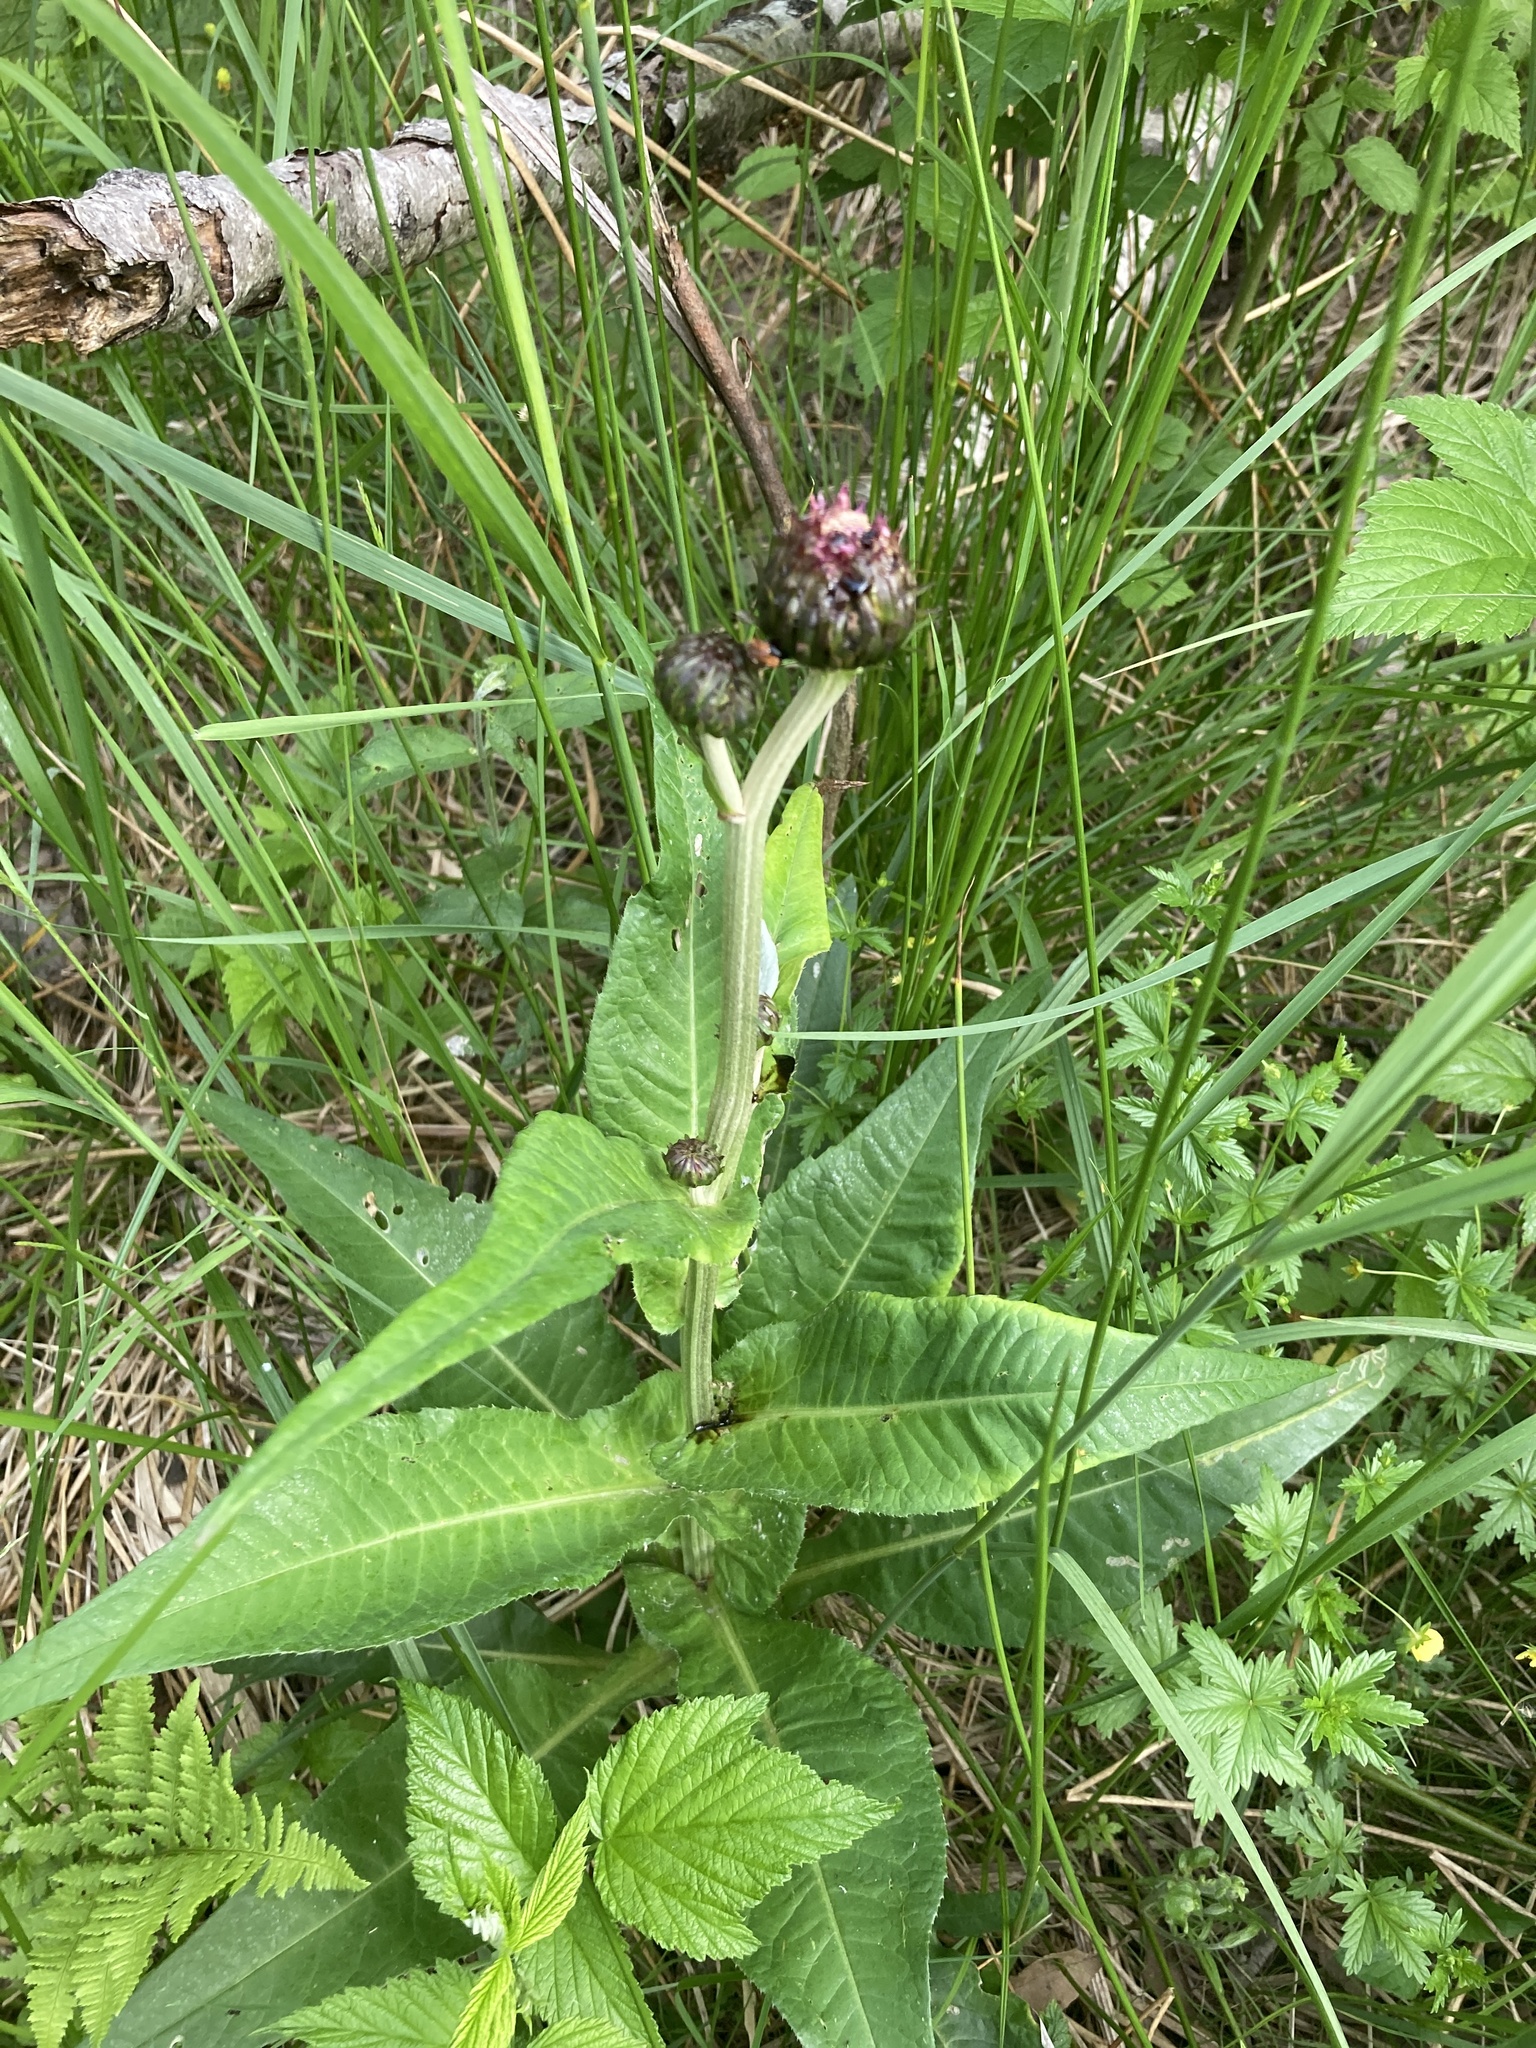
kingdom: Plantae
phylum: Tracheophyta
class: Magnoliopsida
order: Asterales
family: Asteraceae
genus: Cirsium
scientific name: Cirsium heterophyllum
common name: Melancholy thistle
